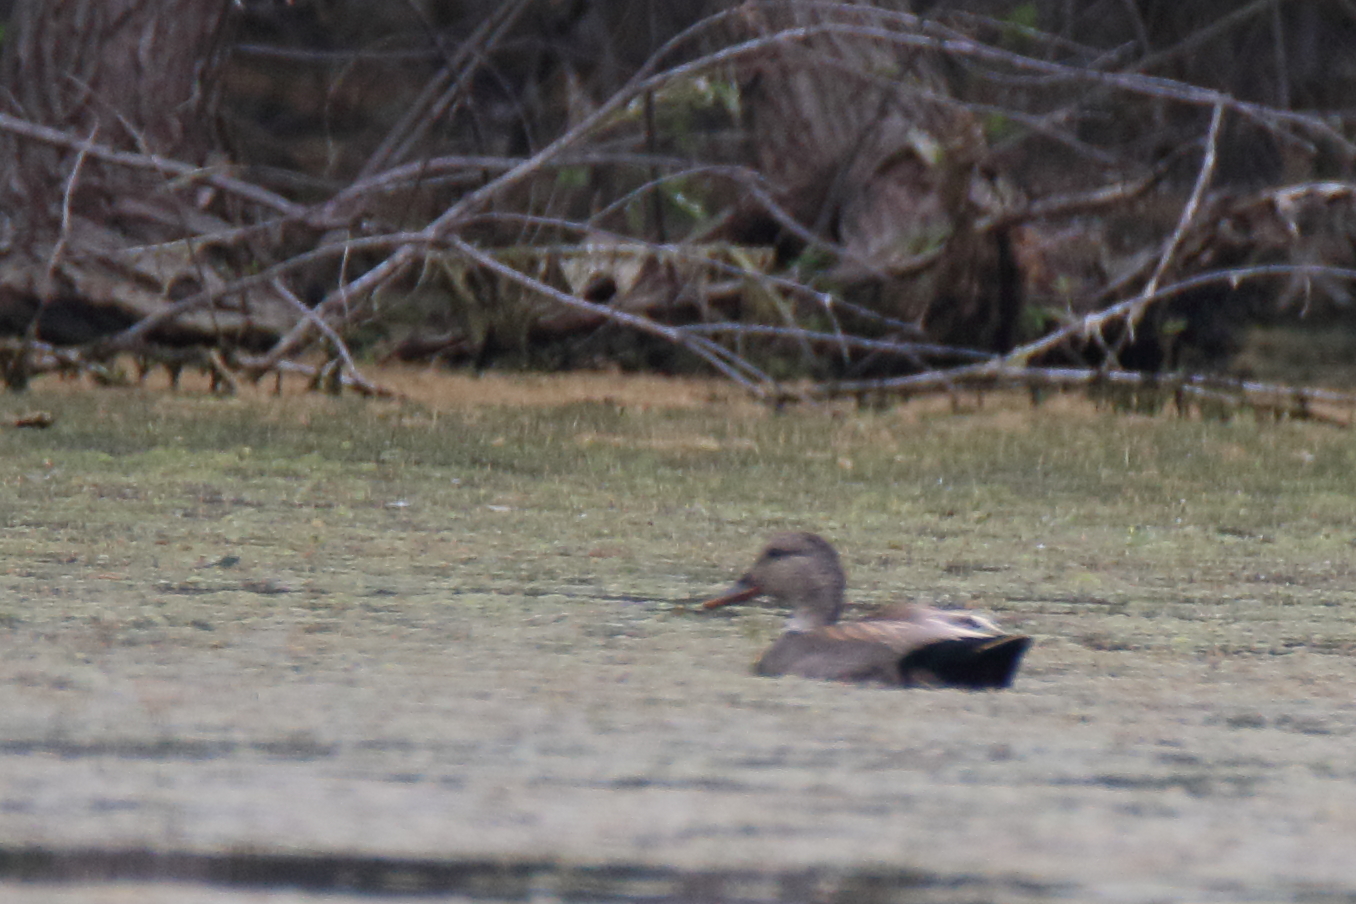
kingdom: Animalia
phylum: Chordata
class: Aves
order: Anseriformes
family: Anatidae
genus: Mareca
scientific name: Mareca strepera
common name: Gadwall
